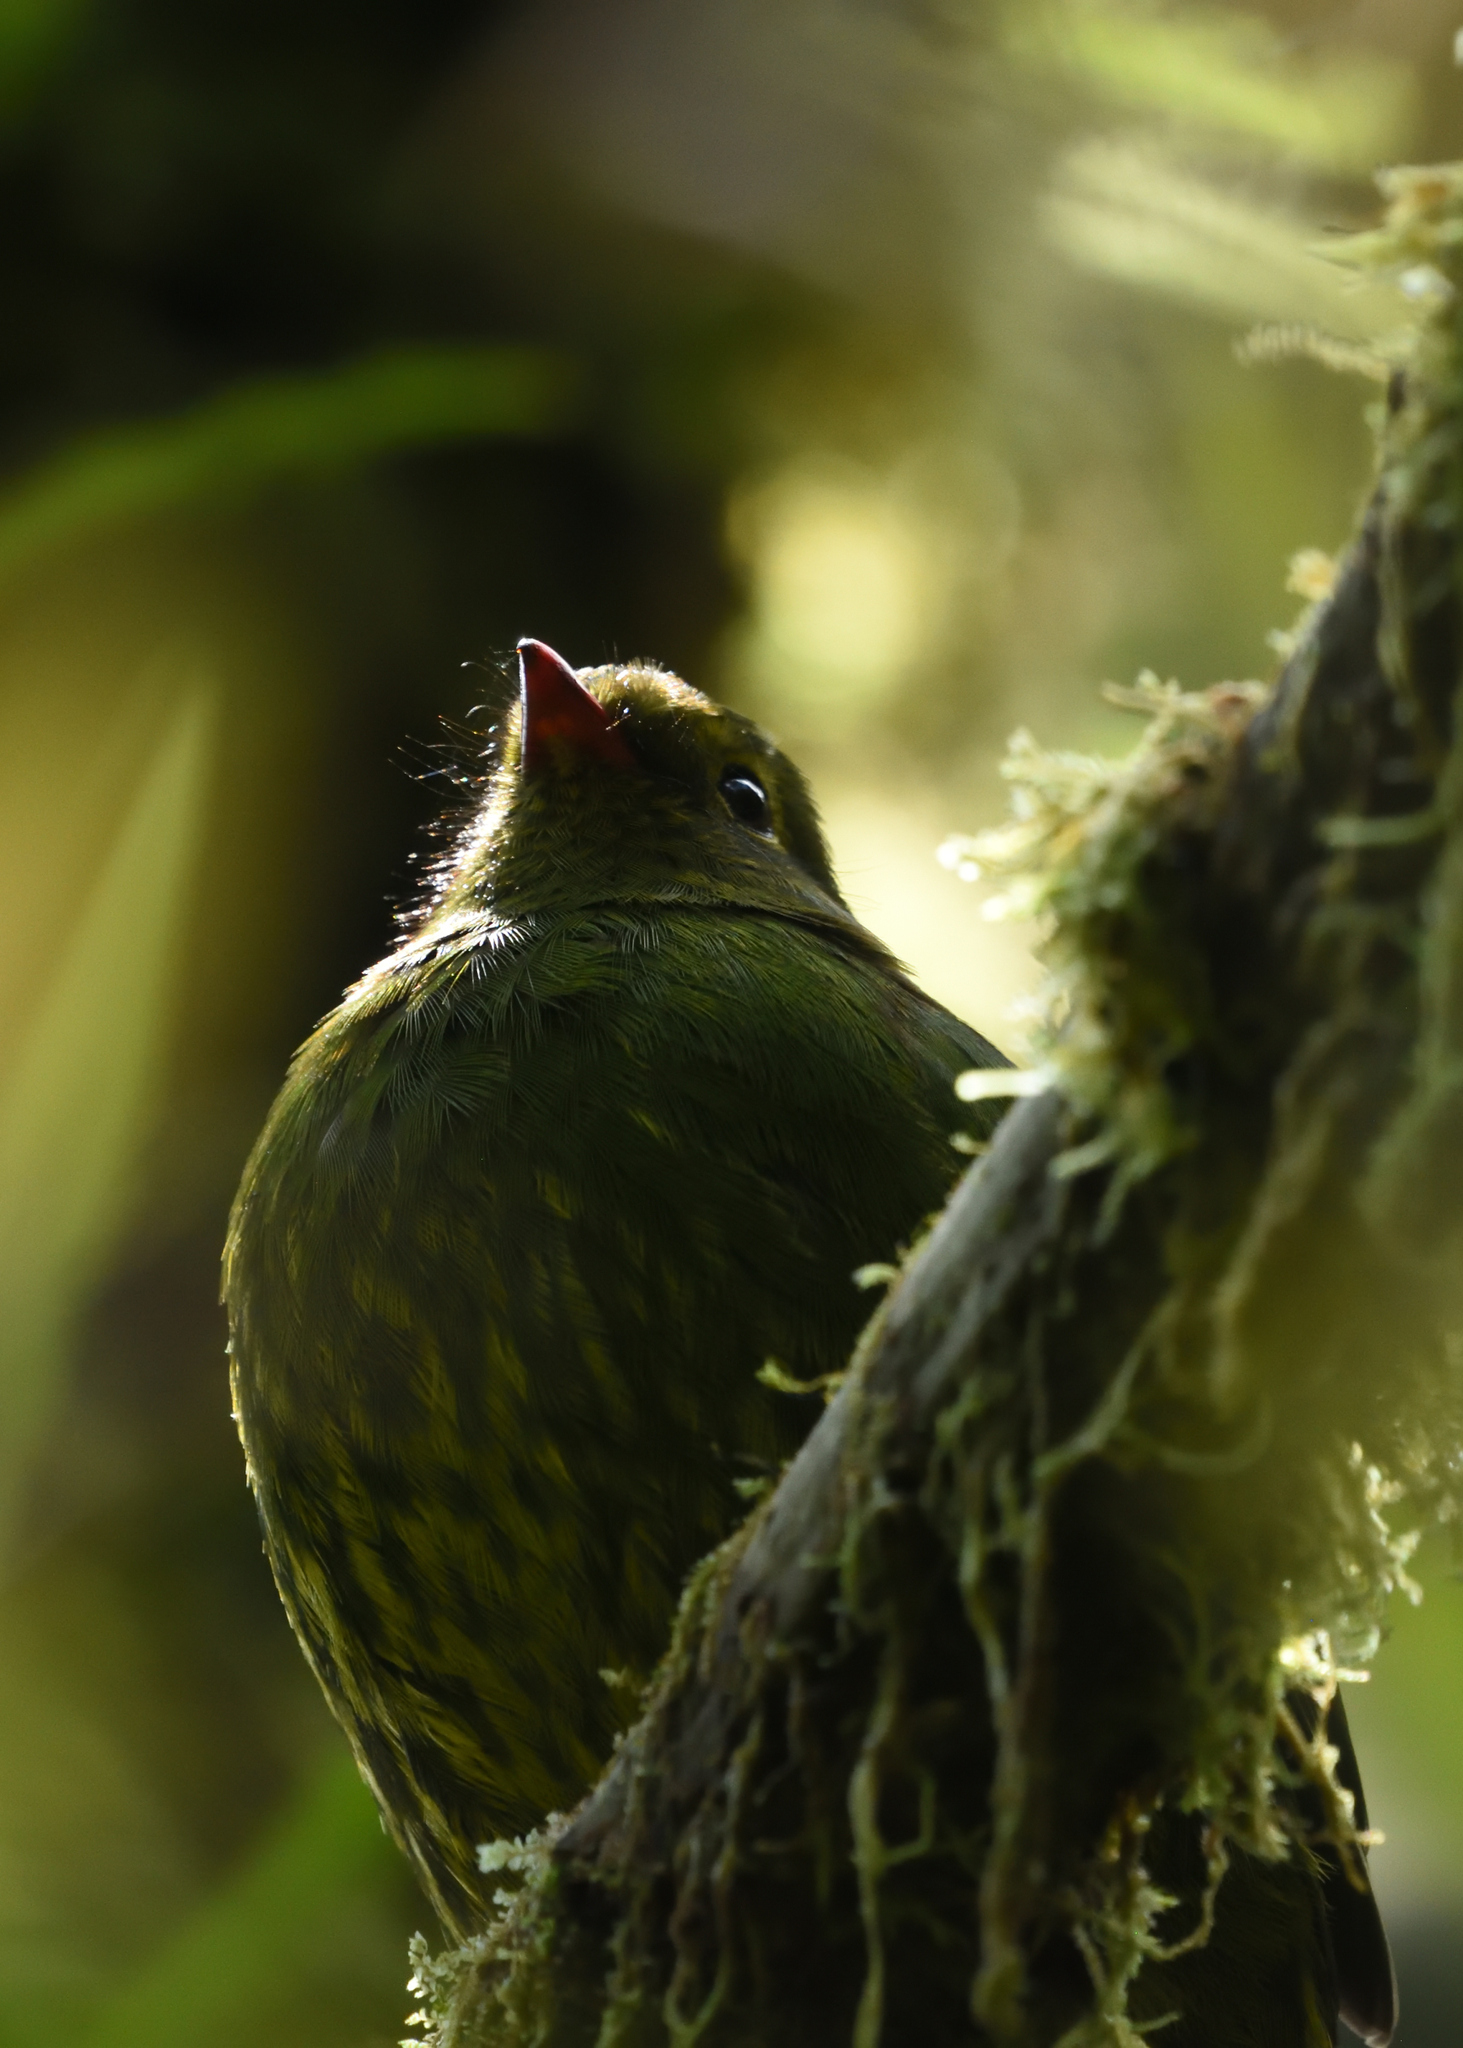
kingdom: Animalia
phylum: Chordata
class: Aves
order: Passeriformes
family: Cotingidae
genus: Pipreola
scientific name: Pipreola riefferii
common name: Green-and-black fruiteater
